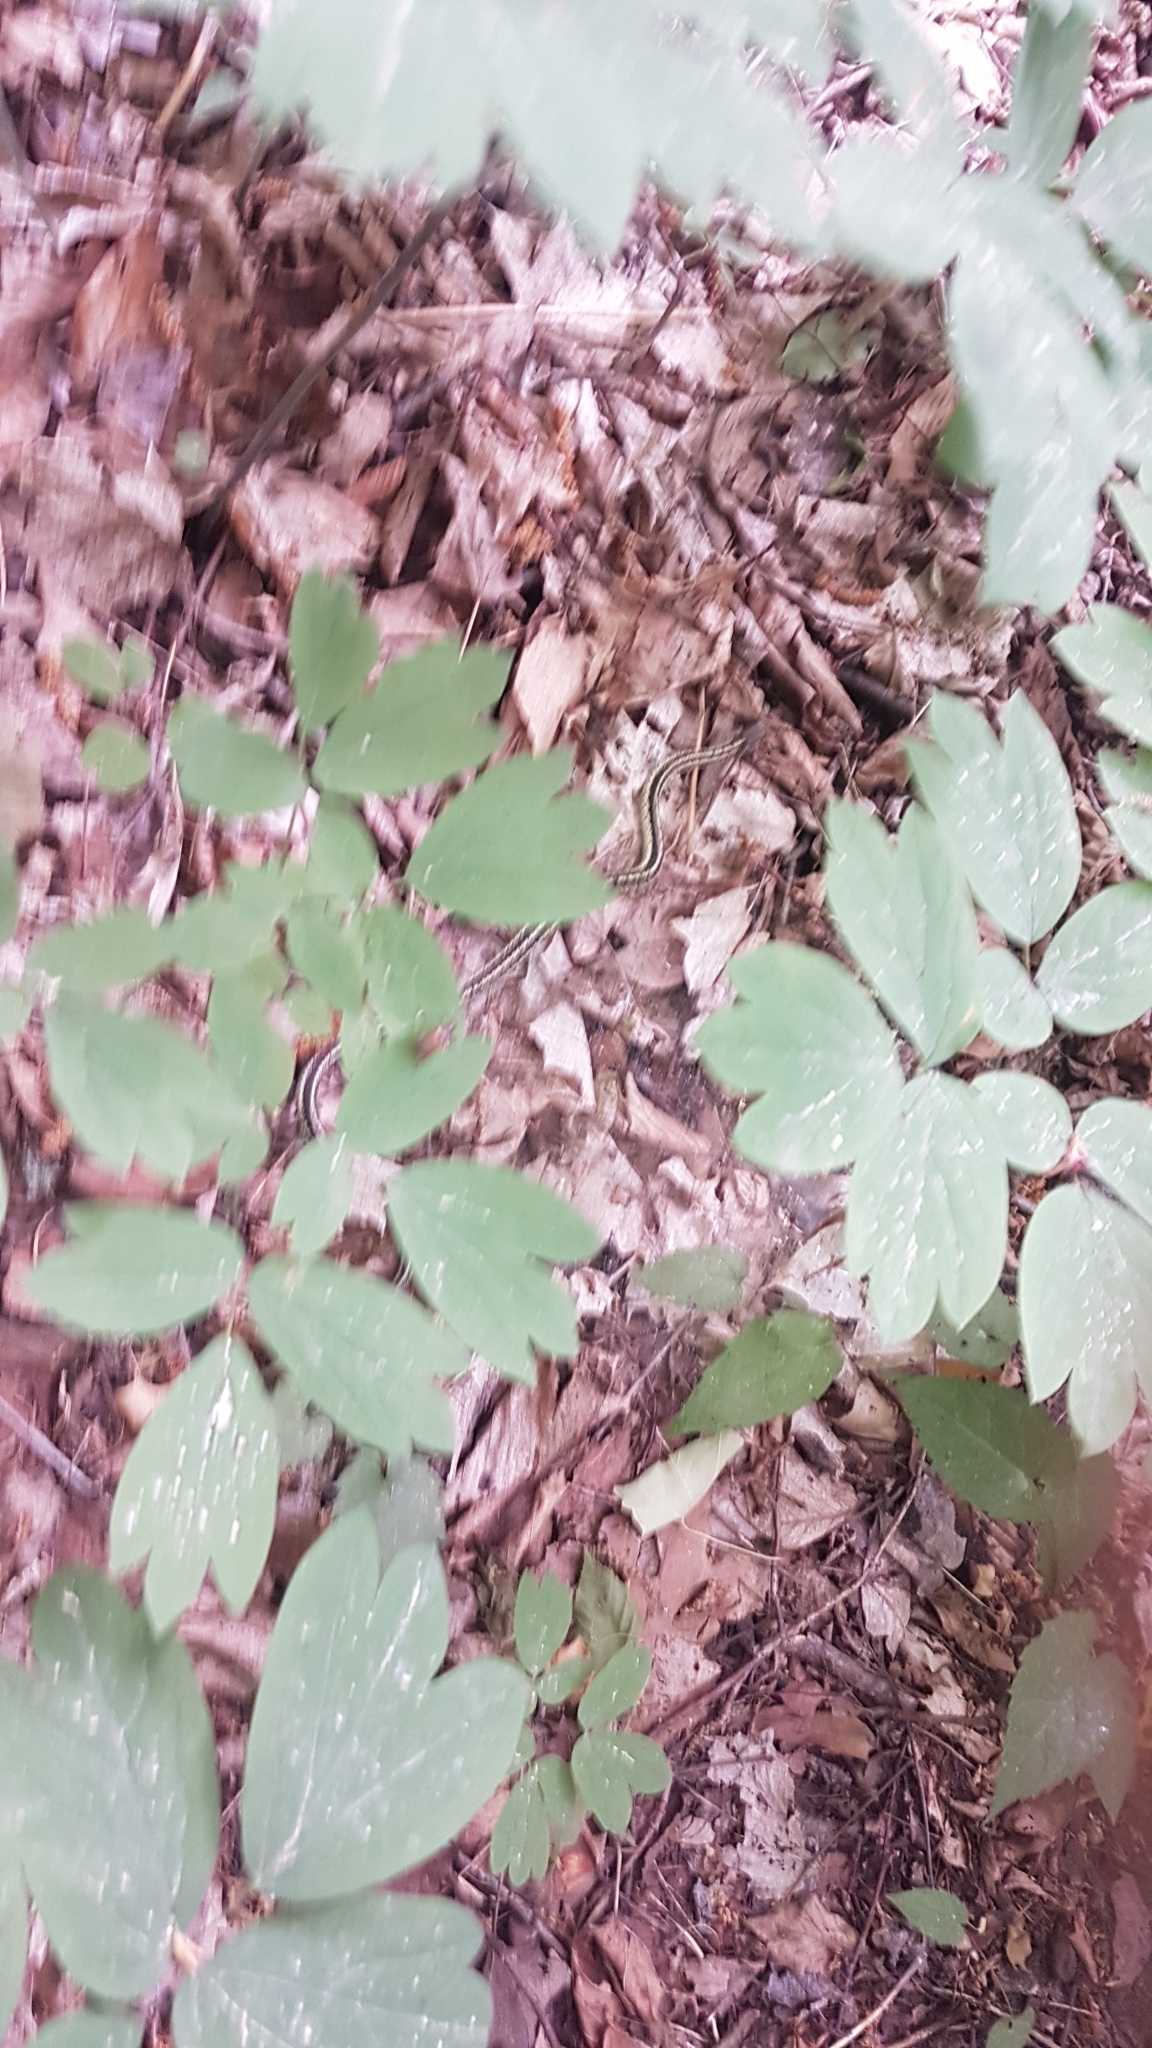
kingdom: Animalia
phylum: Chordata
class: Squamata
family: Colubridae
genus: Thamnophis
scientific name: Thamnophis sirtalis
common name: Common garter snake
